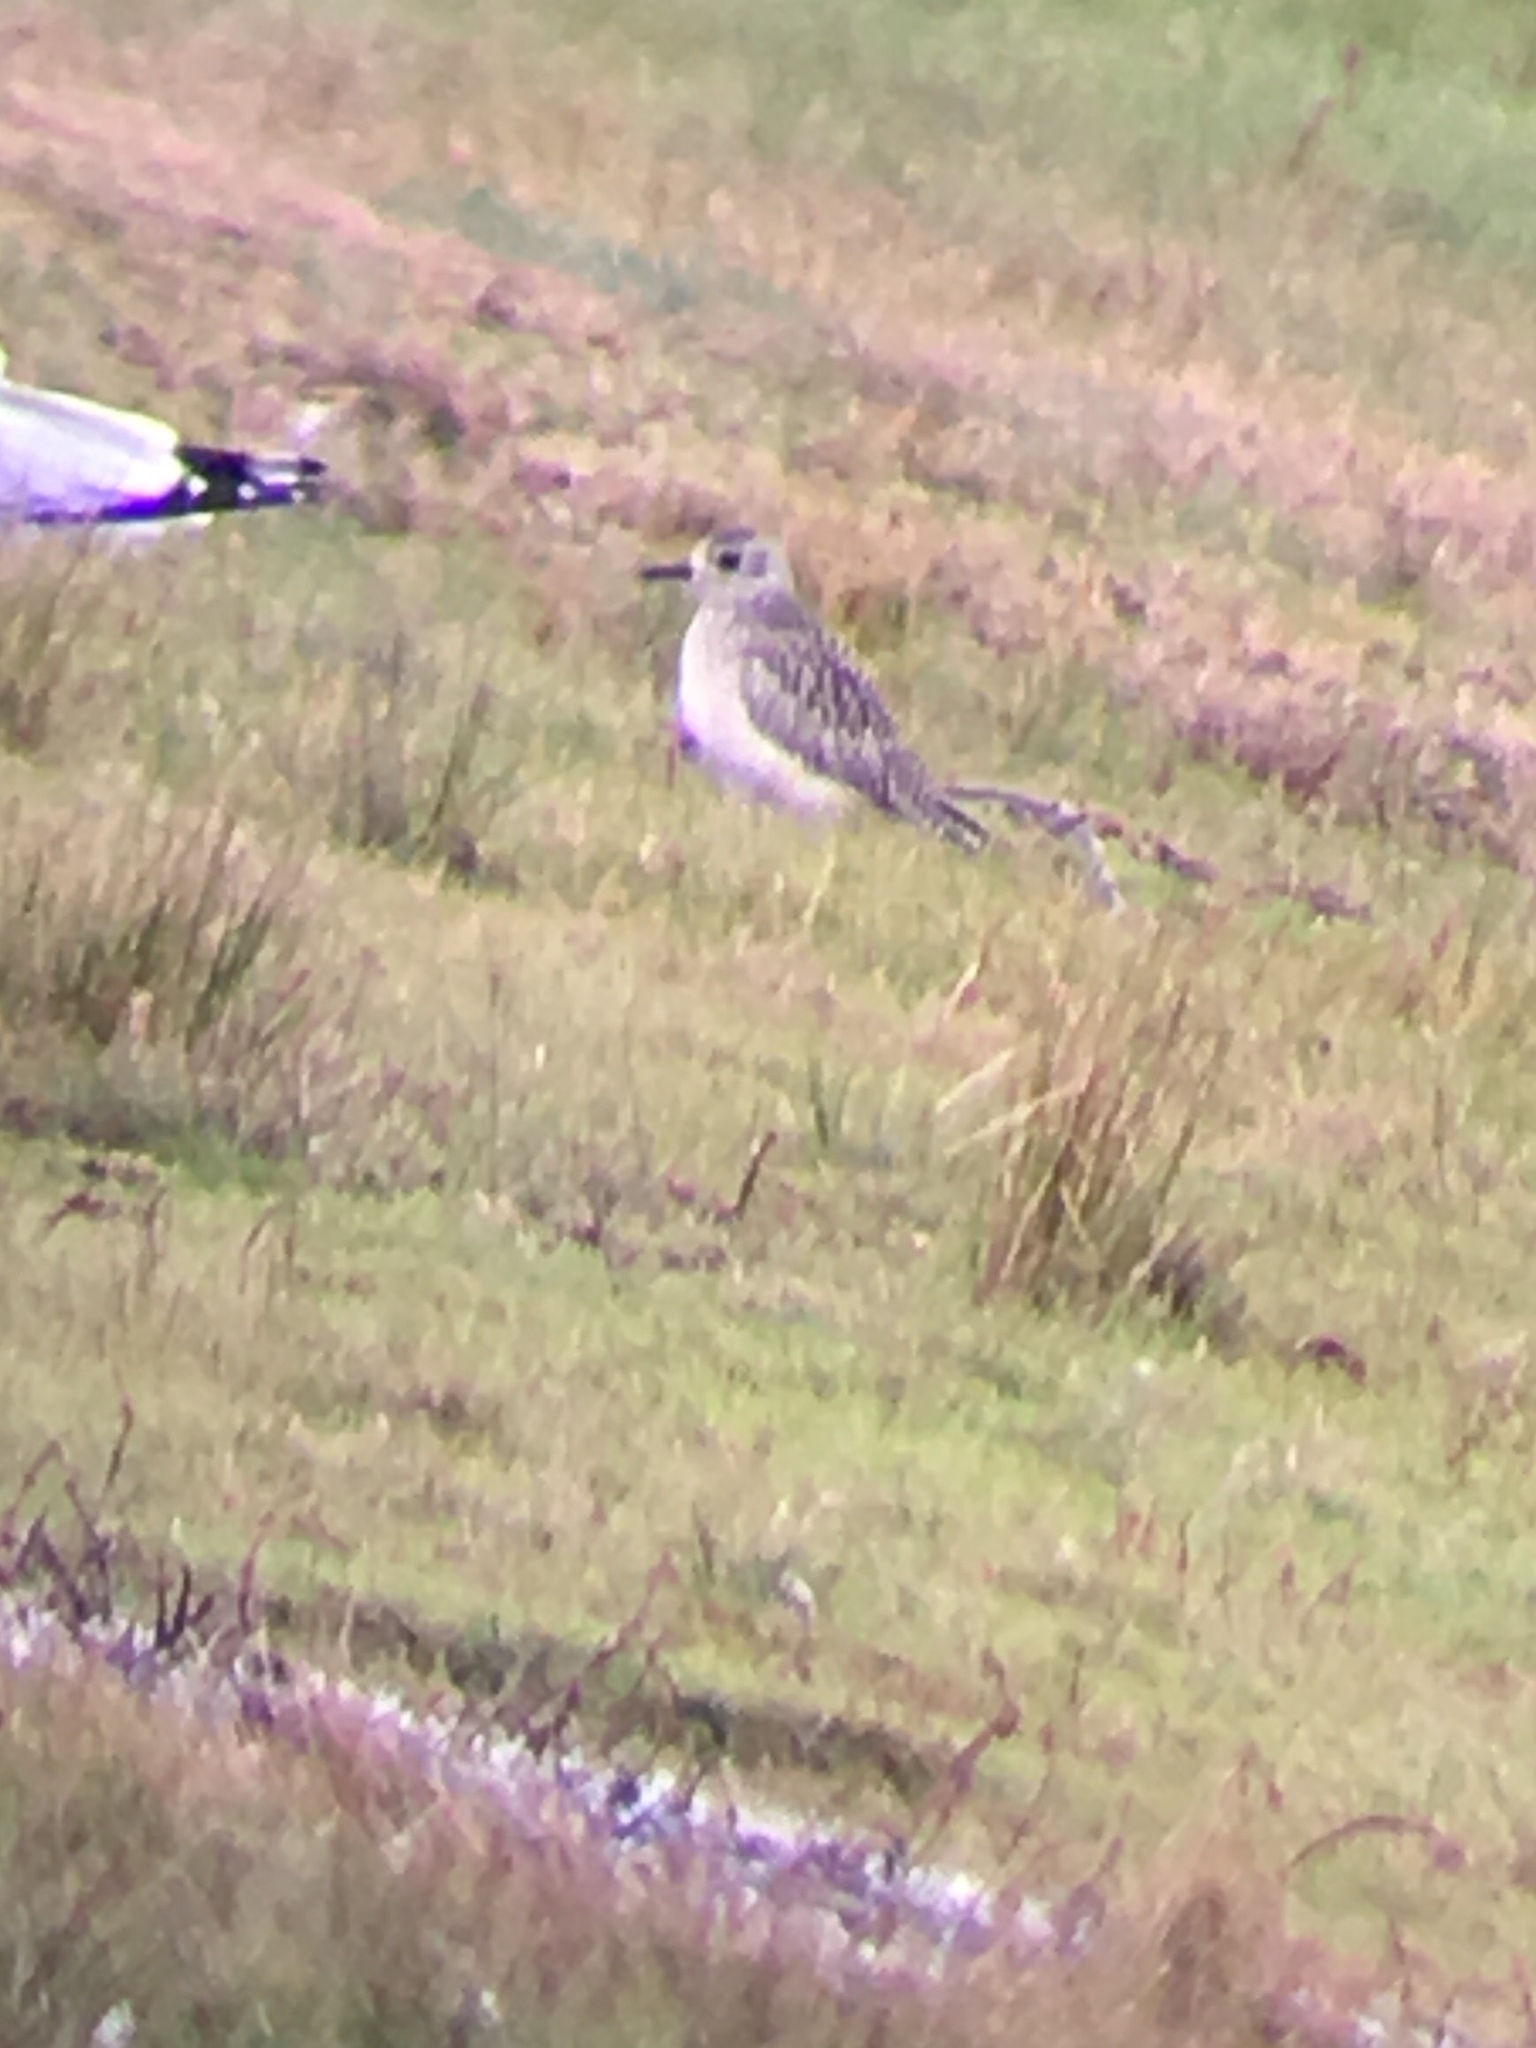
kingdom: Animalia
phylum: Chordata
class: Aves
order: Charadriiformes
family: Charadriidae
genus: Pluvialis
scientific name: Pluvialis squatarola
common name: Grey plover
